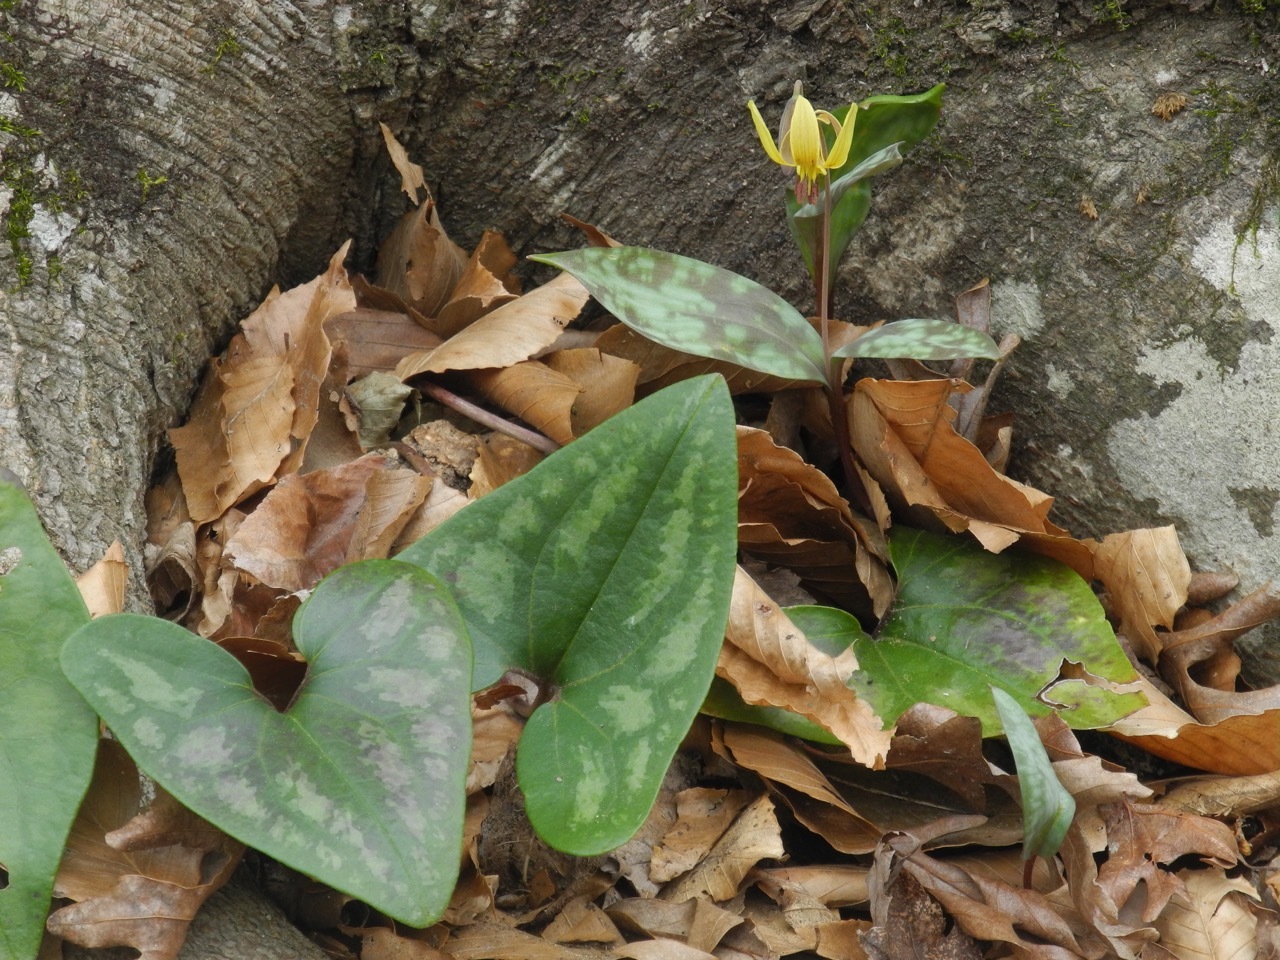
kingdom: Plantae
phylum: Tracheophyta
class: Magnoliopsida
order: Piperales
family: Aristolochiaceae
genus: Hexastylis
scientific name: Hexastylis arifolia
